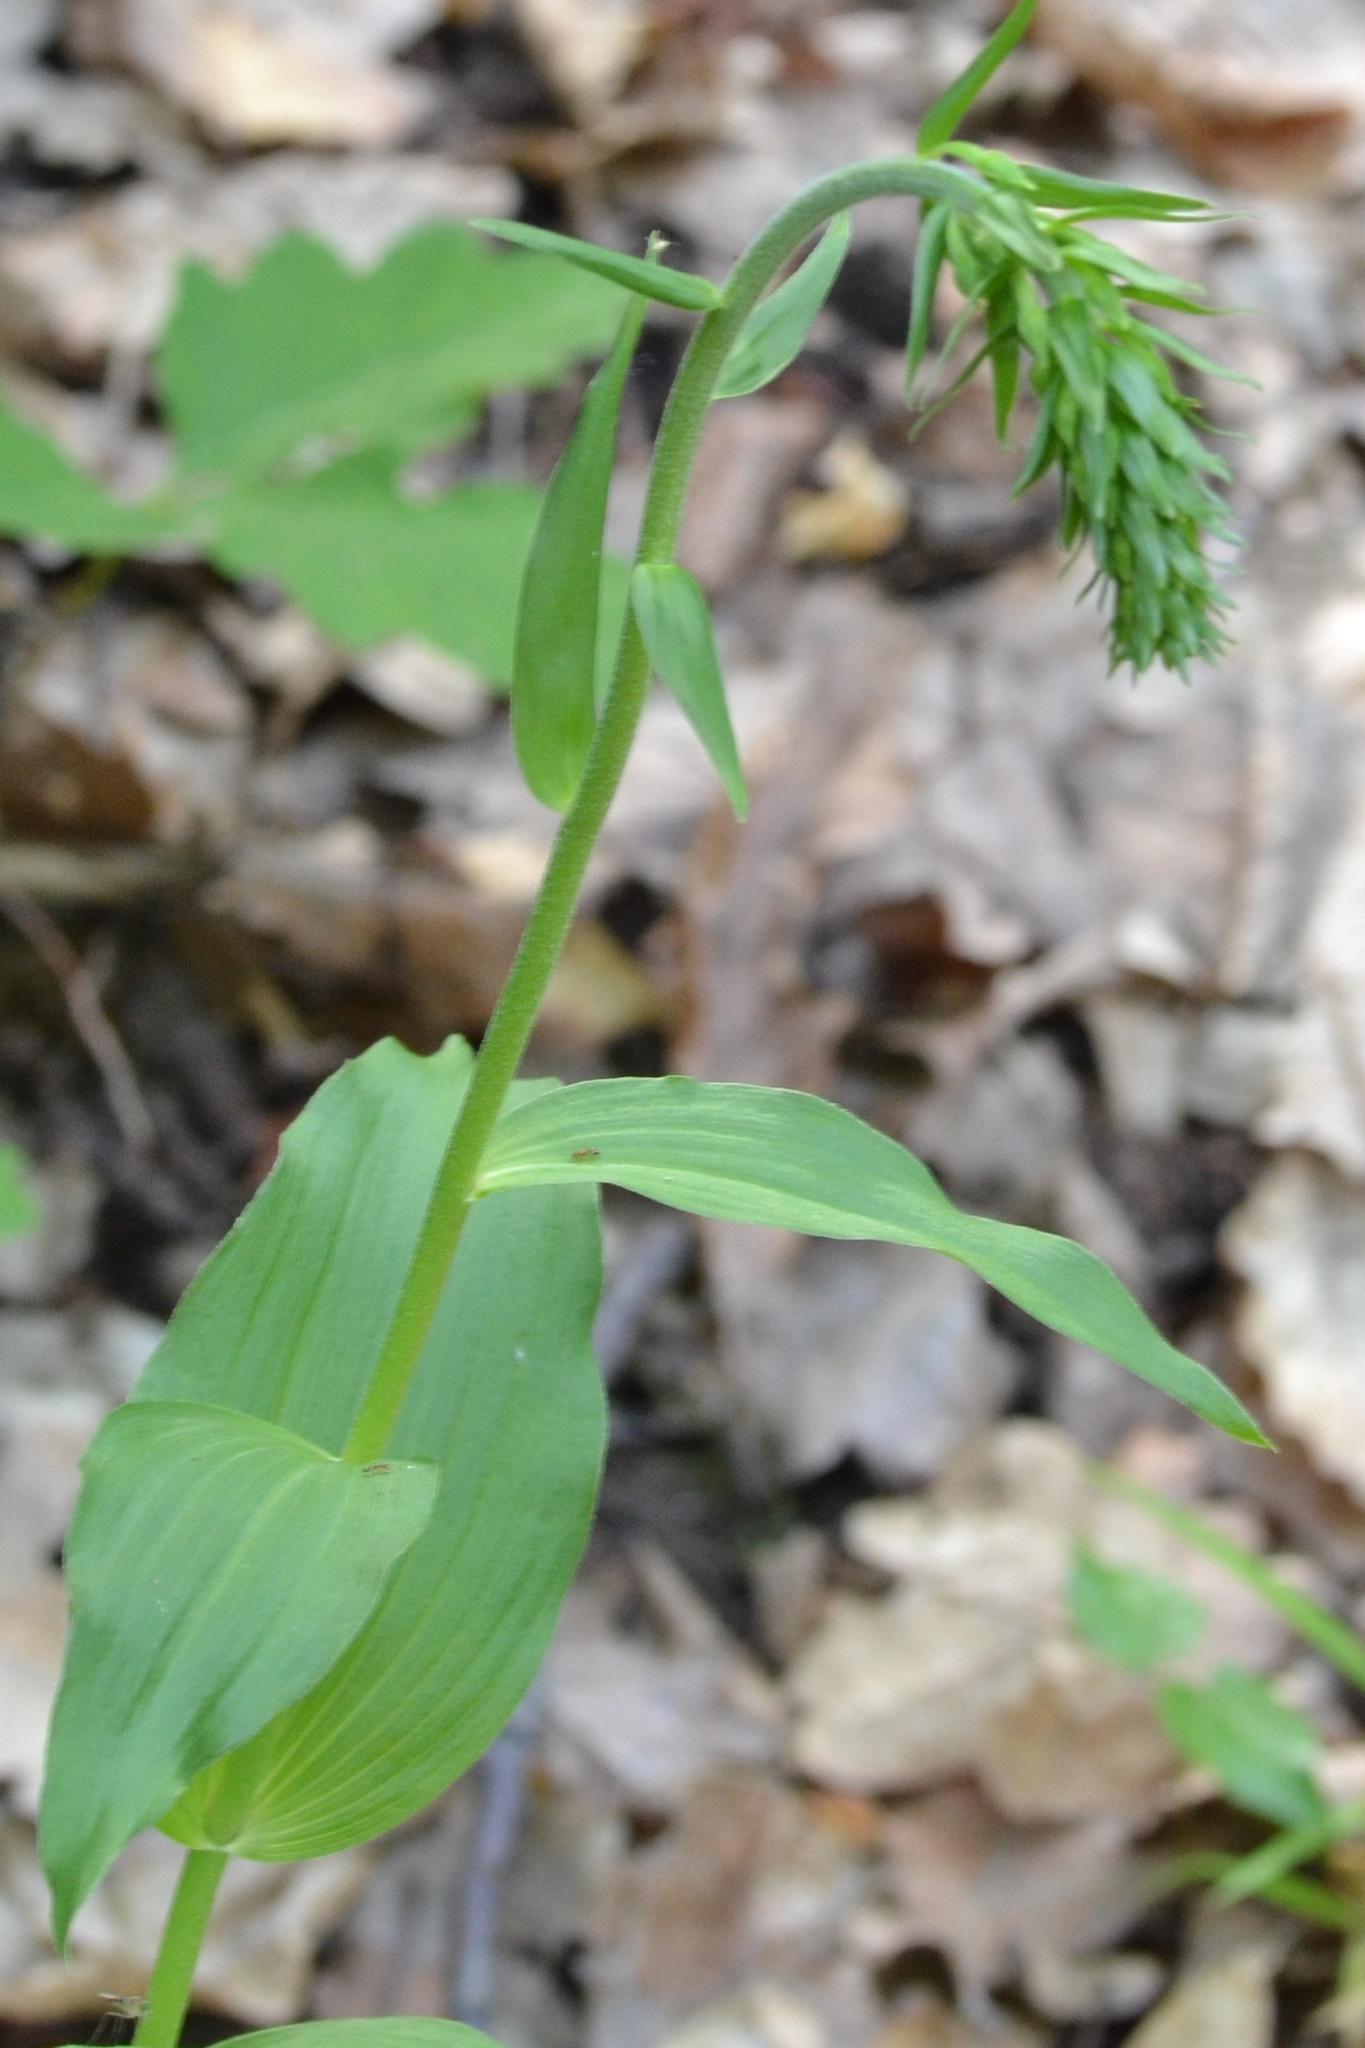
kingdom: Plantae
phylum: Tracheophyta
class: Liliopsida
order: Asparagales
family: Orchidaceae
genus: Epipactis
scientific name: Epipactis helleborine
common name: Broad-leaved helleborine
